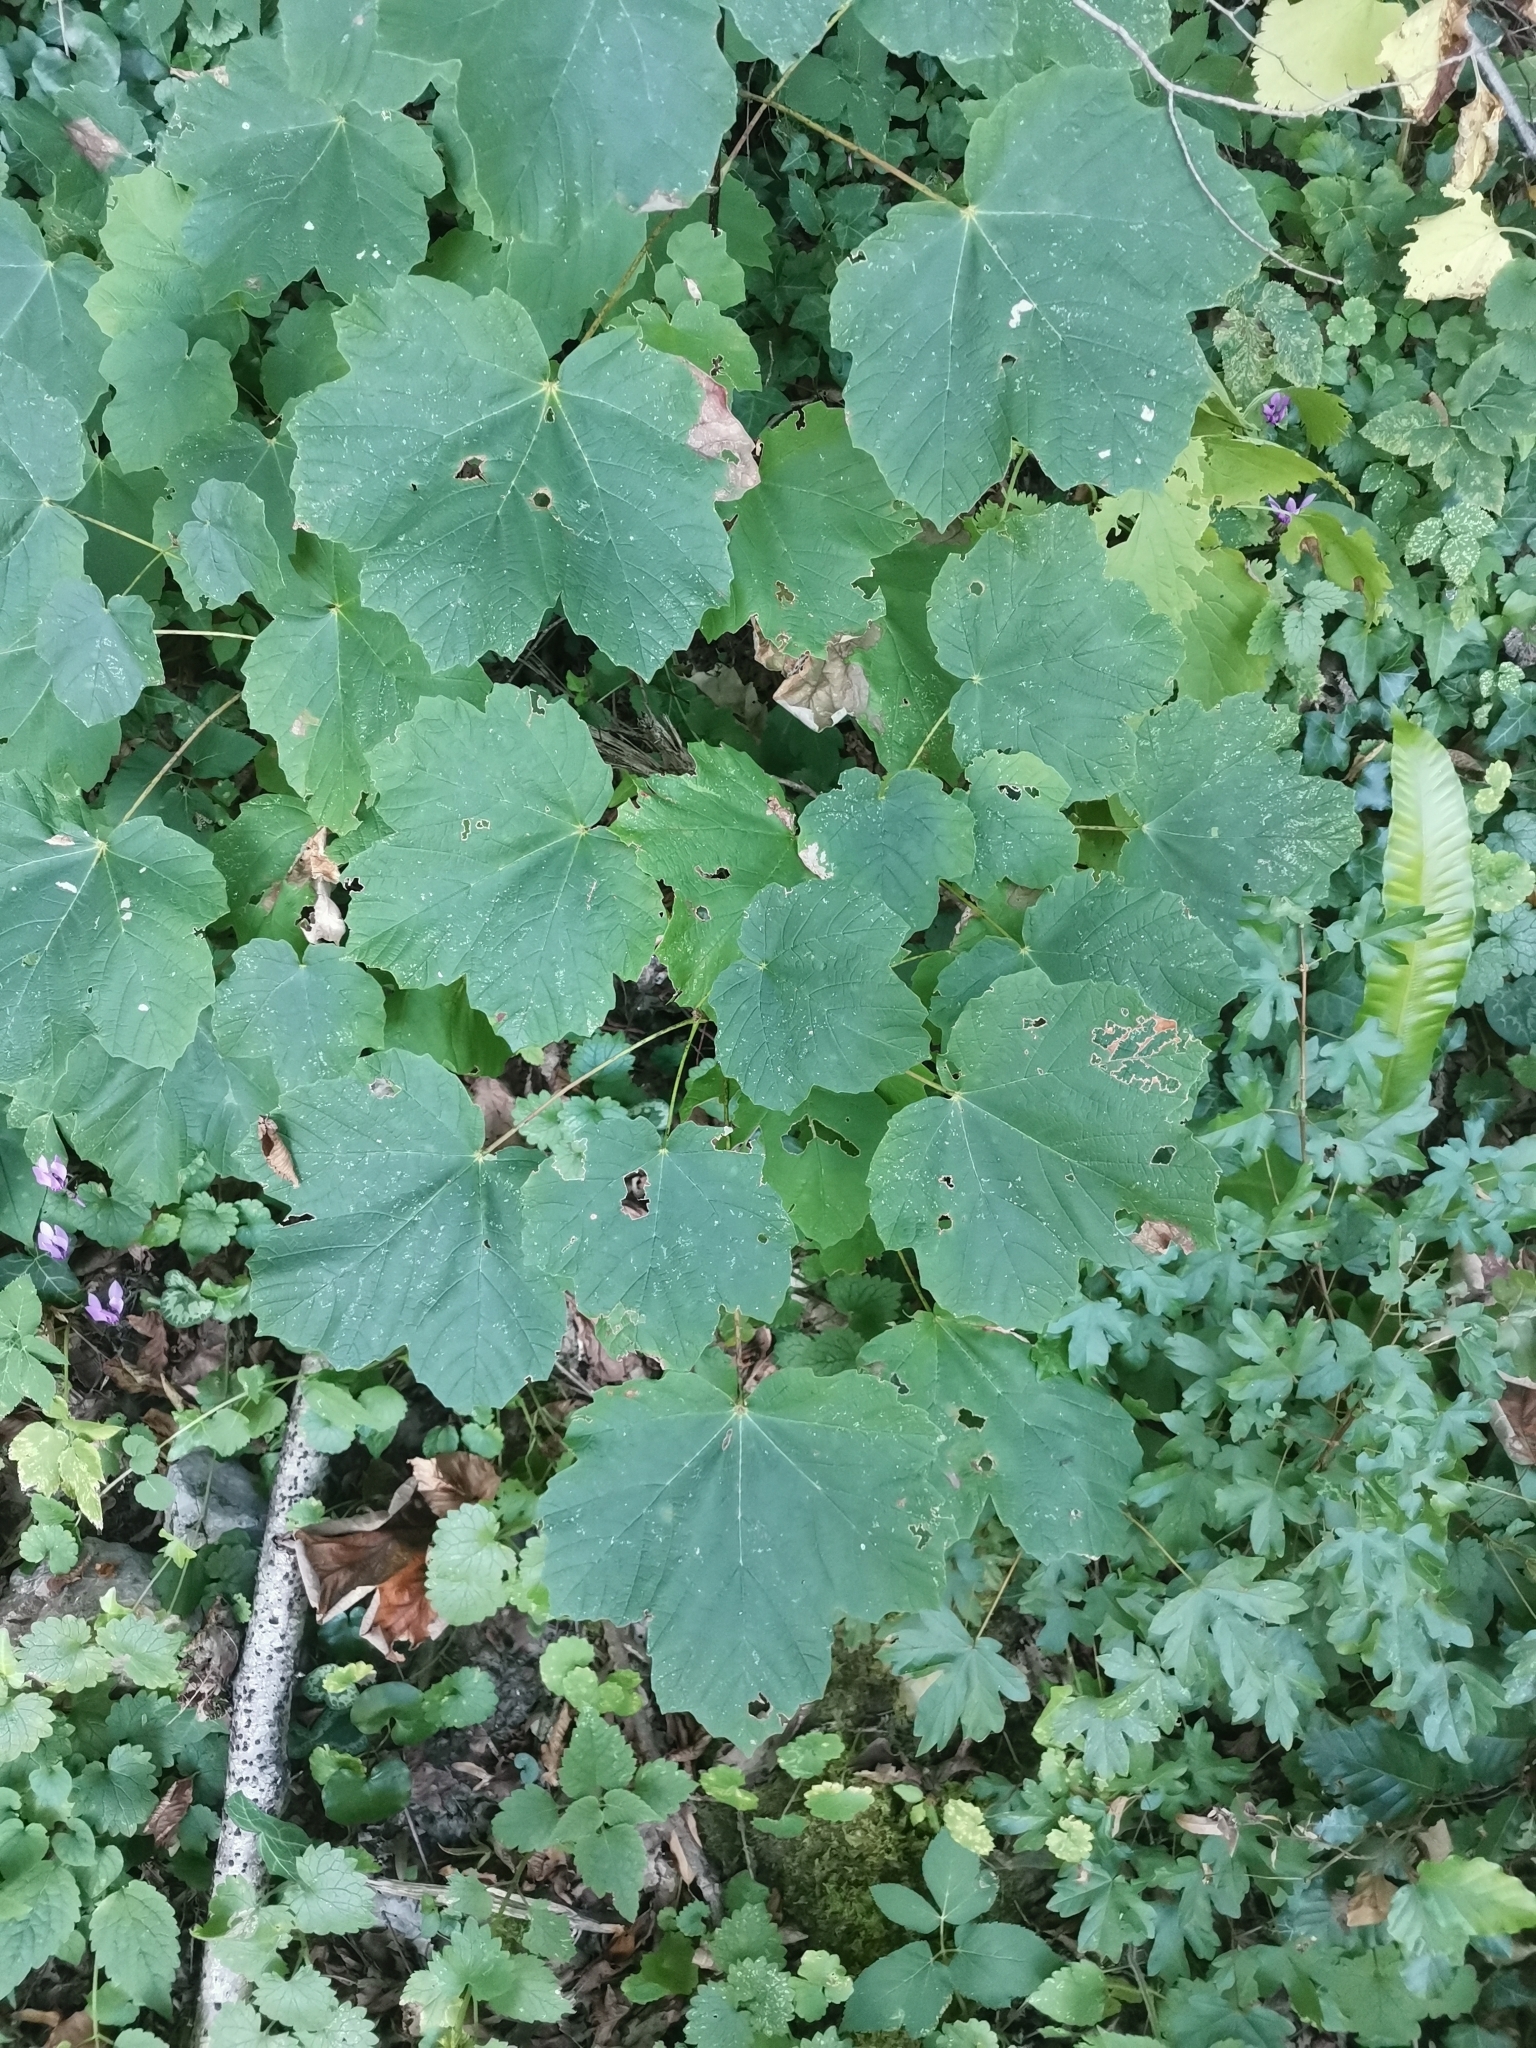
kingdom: Plantae
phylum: Tracheophyta
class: Magnoliopsida
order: Sapindales
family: Sapindaceae
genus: Acer
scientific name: Acer obtusatum
